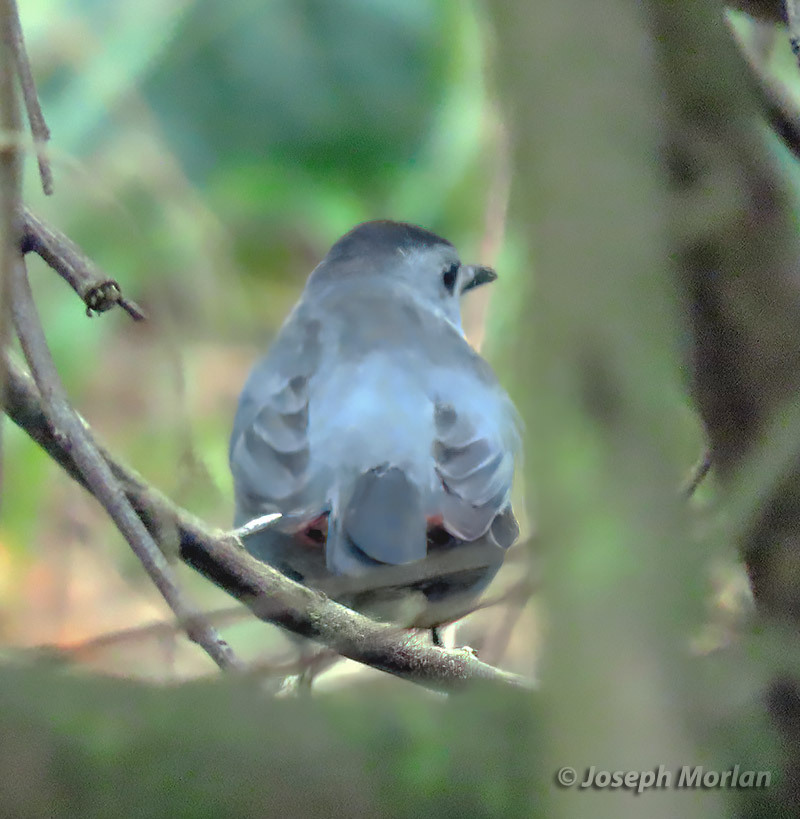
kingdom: Animalia
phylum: Chordata
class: Aves
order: Passeriformes
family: Mimidae
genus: Dumetella
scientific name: Dumetella carolinensis
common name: Gray catbird
